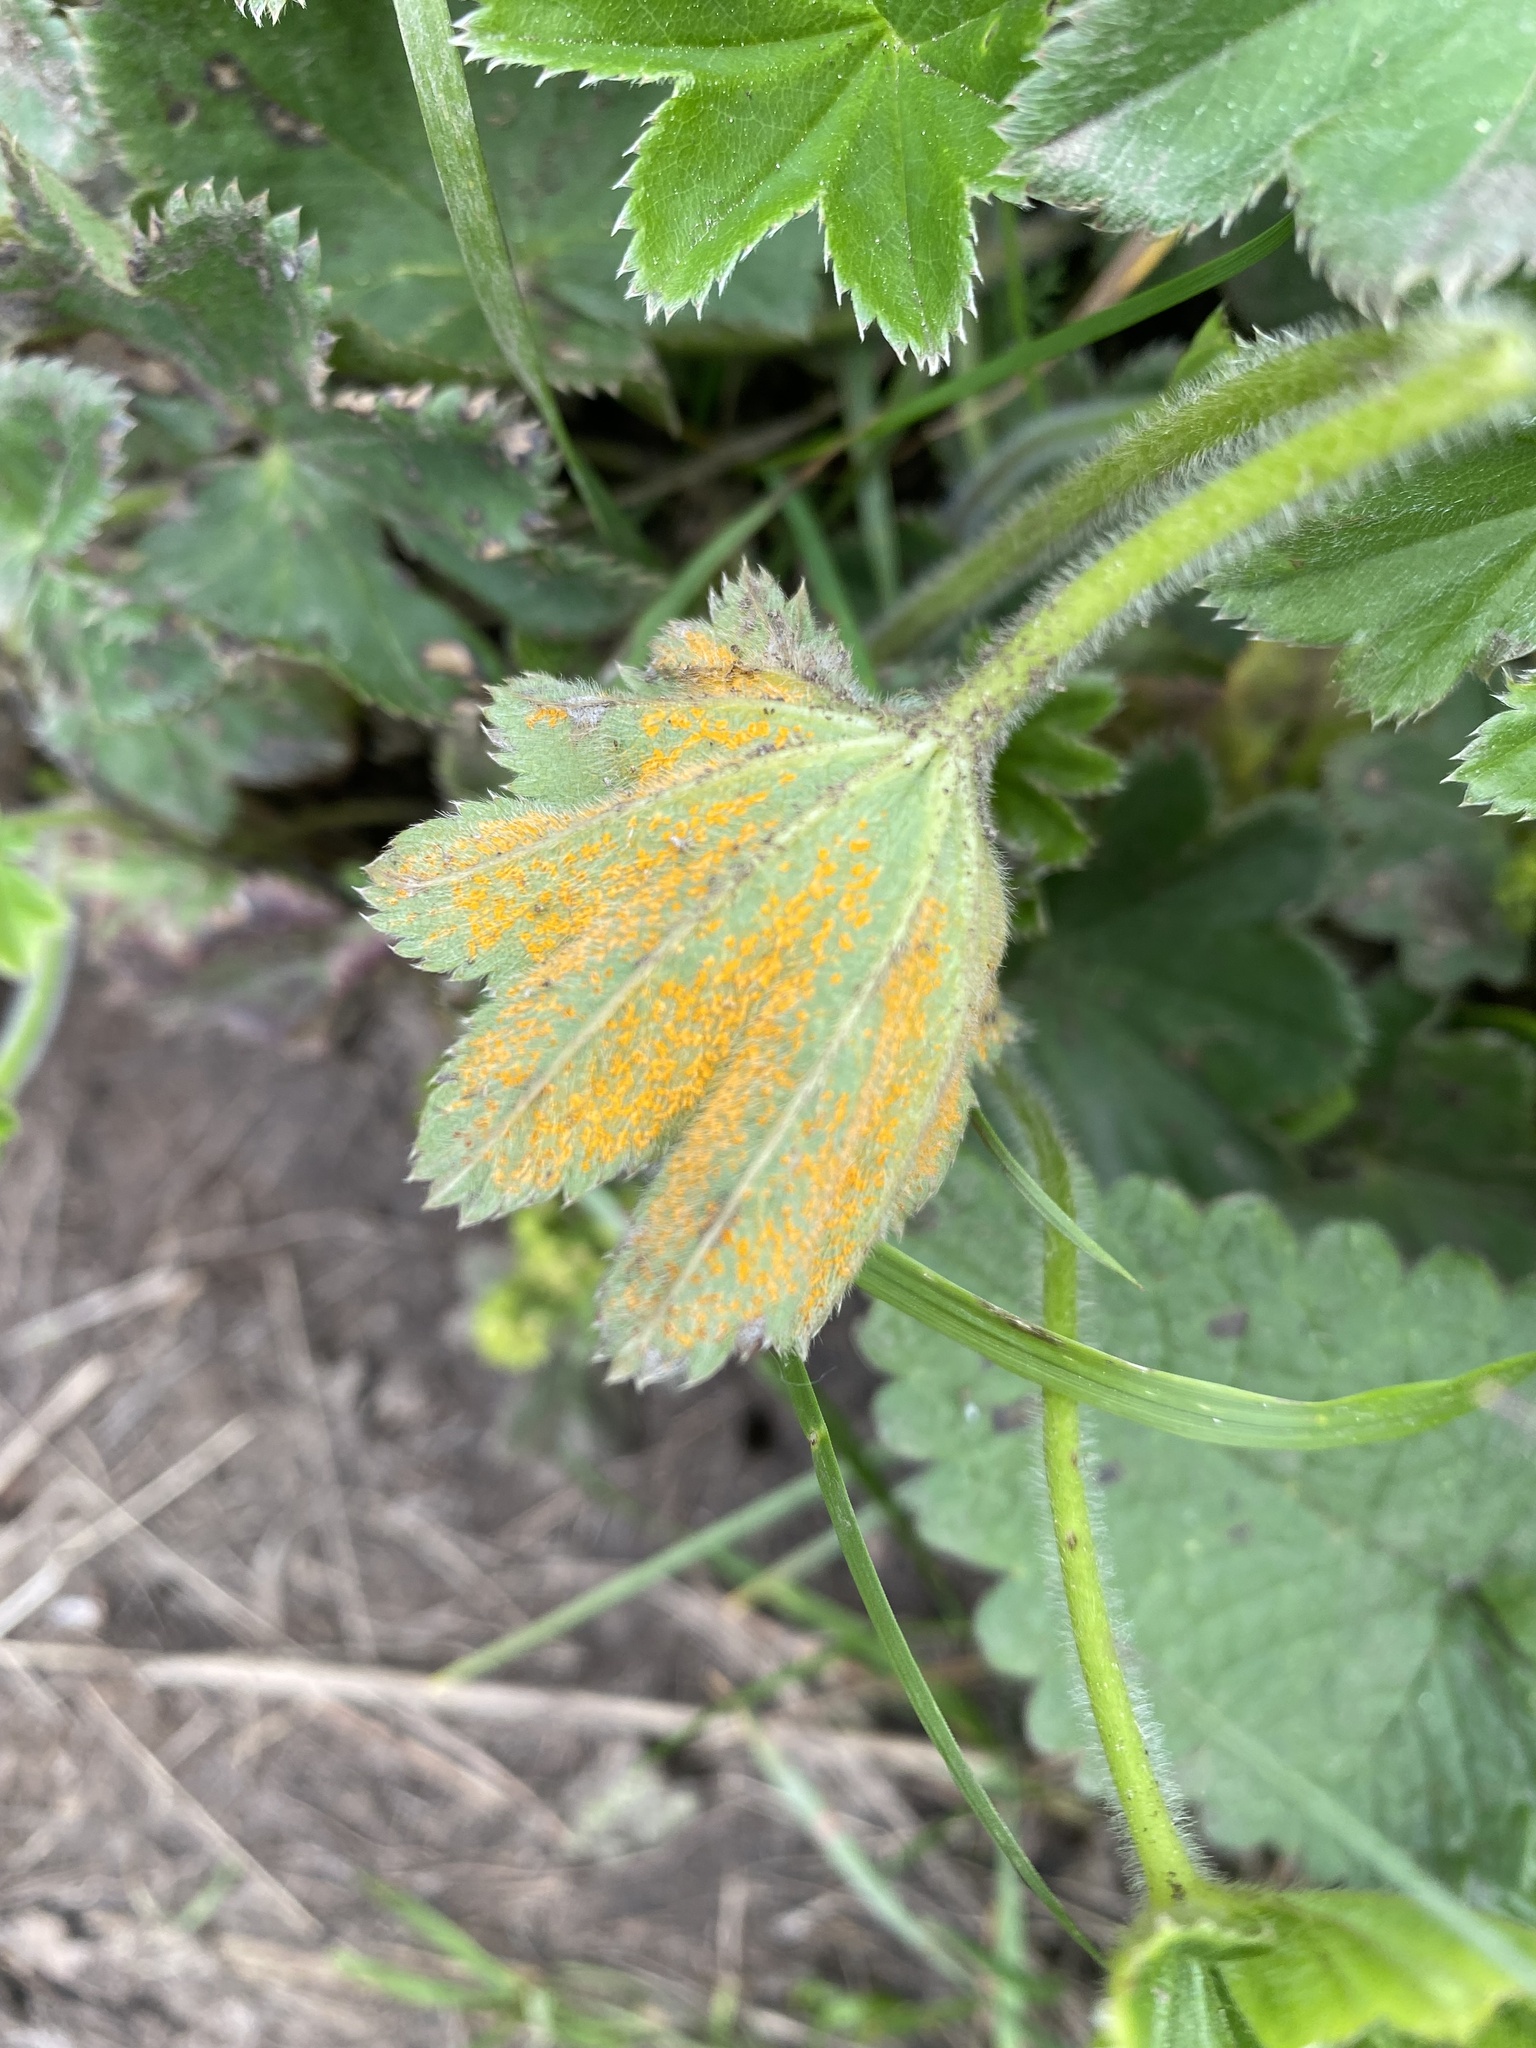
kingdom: Fungi
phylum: Basidiomycota
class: Pucciniomycetes
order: Pucciniales
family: Phragmidiaceae
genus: Trachyspora
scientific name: Trachyspora alchemillae
